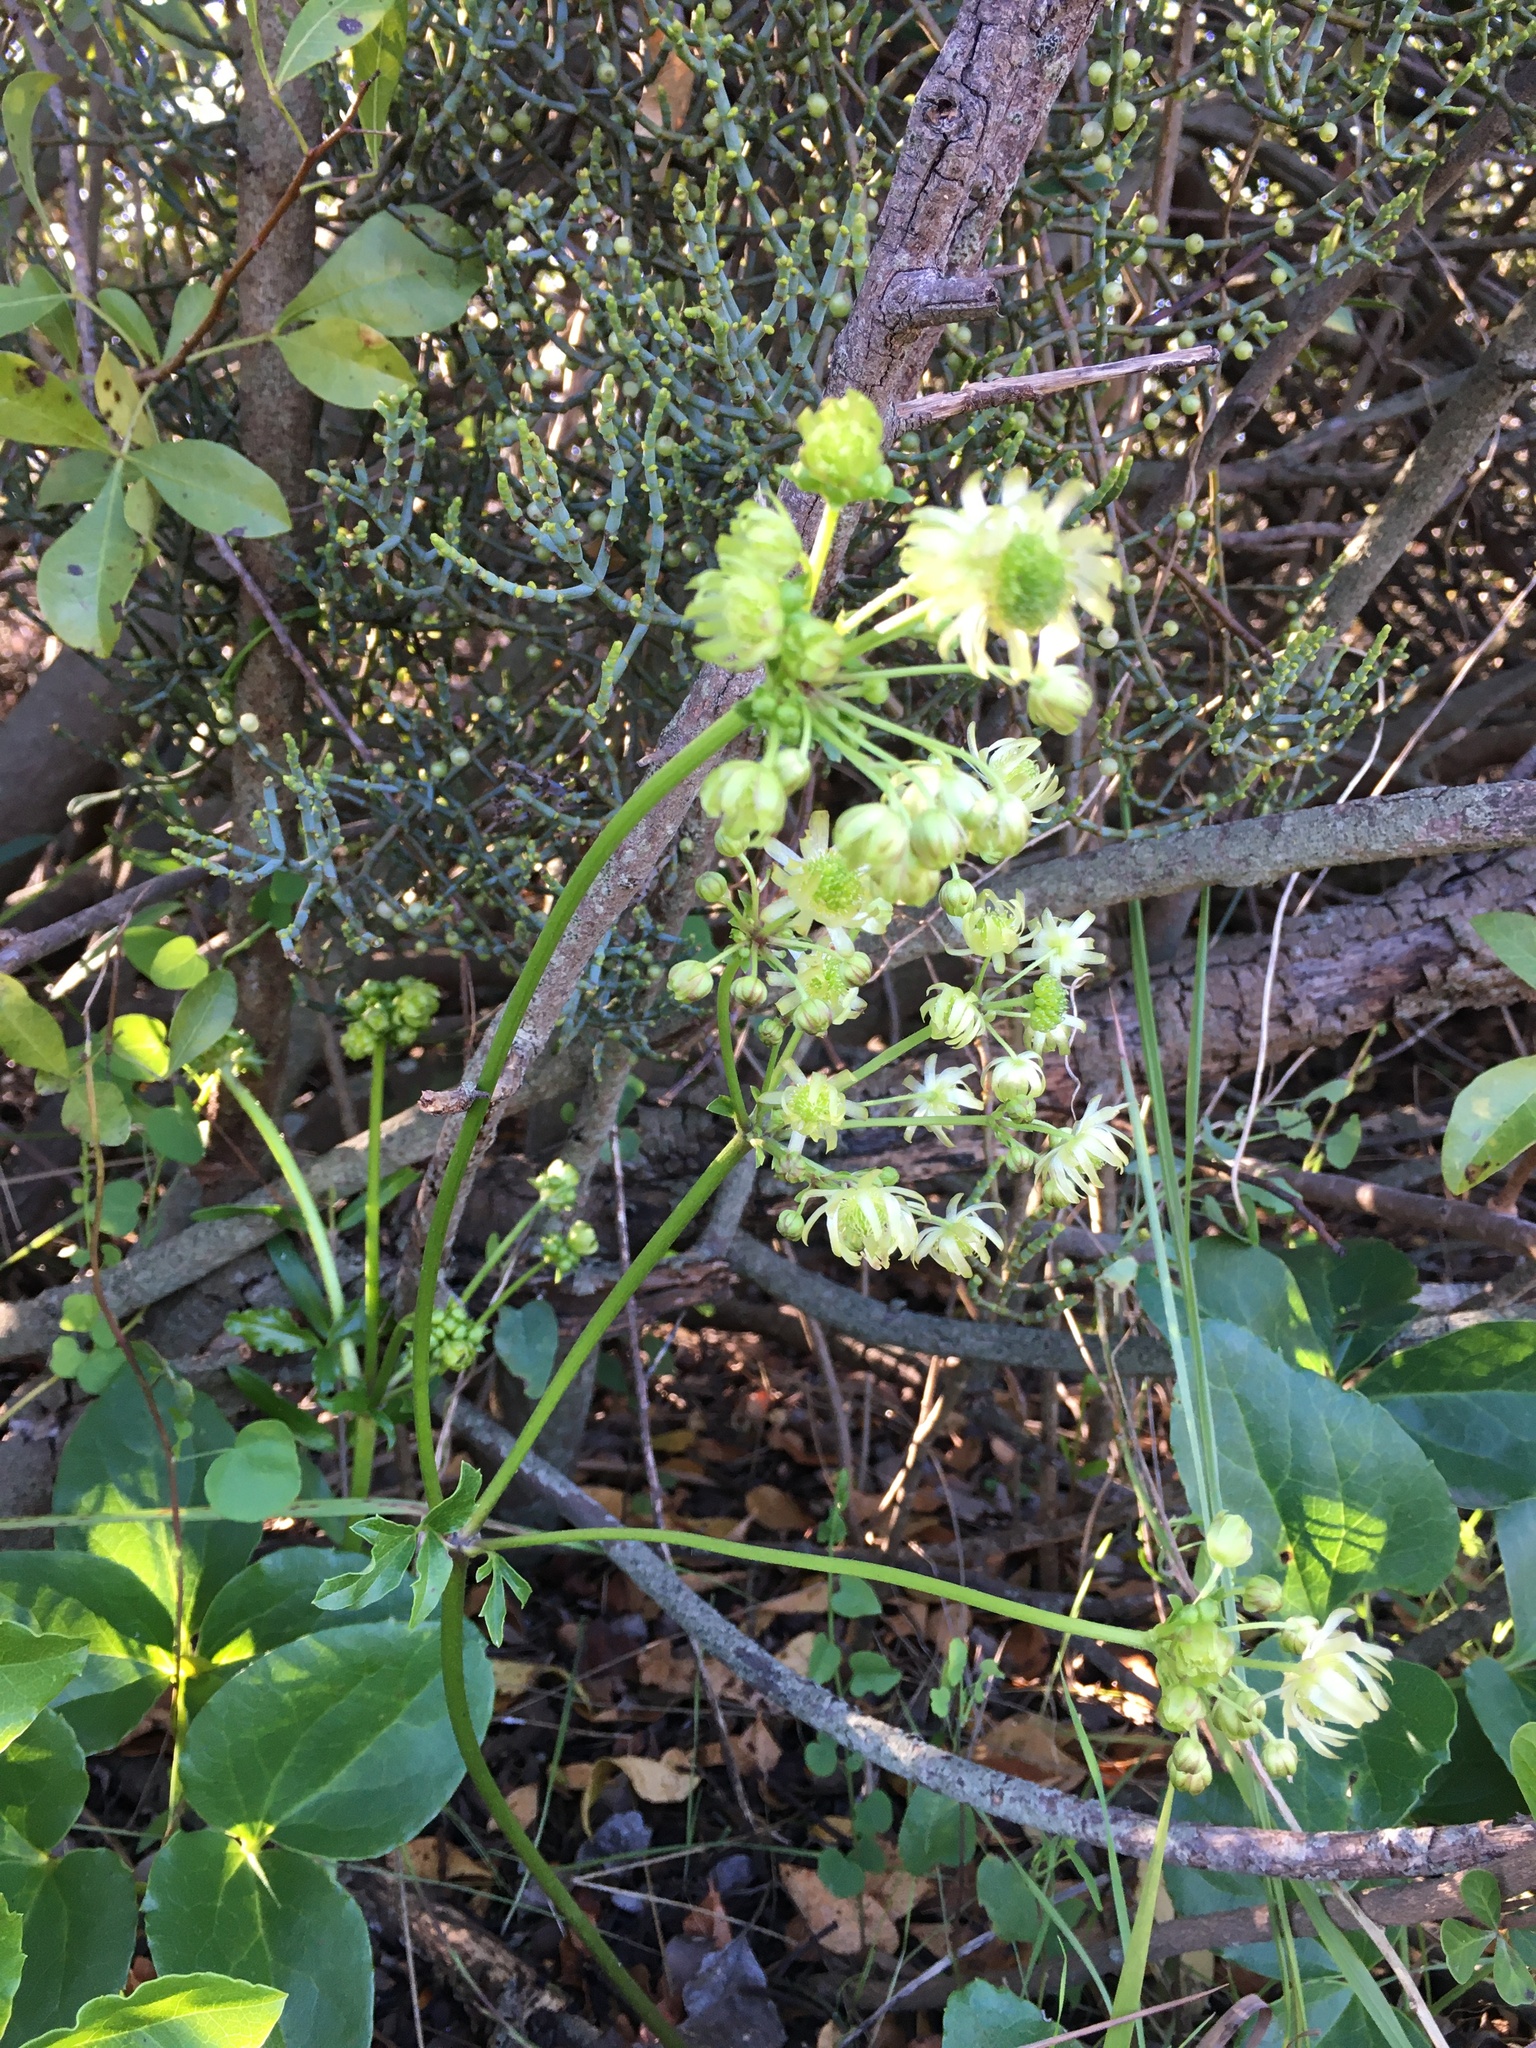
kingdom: Plantae
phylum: Tracheophyta
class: Magnoliopsida
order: Ranunculales
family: Ranunculaceae
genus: Knowltonia
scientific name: Knowltonia vesicatoria
